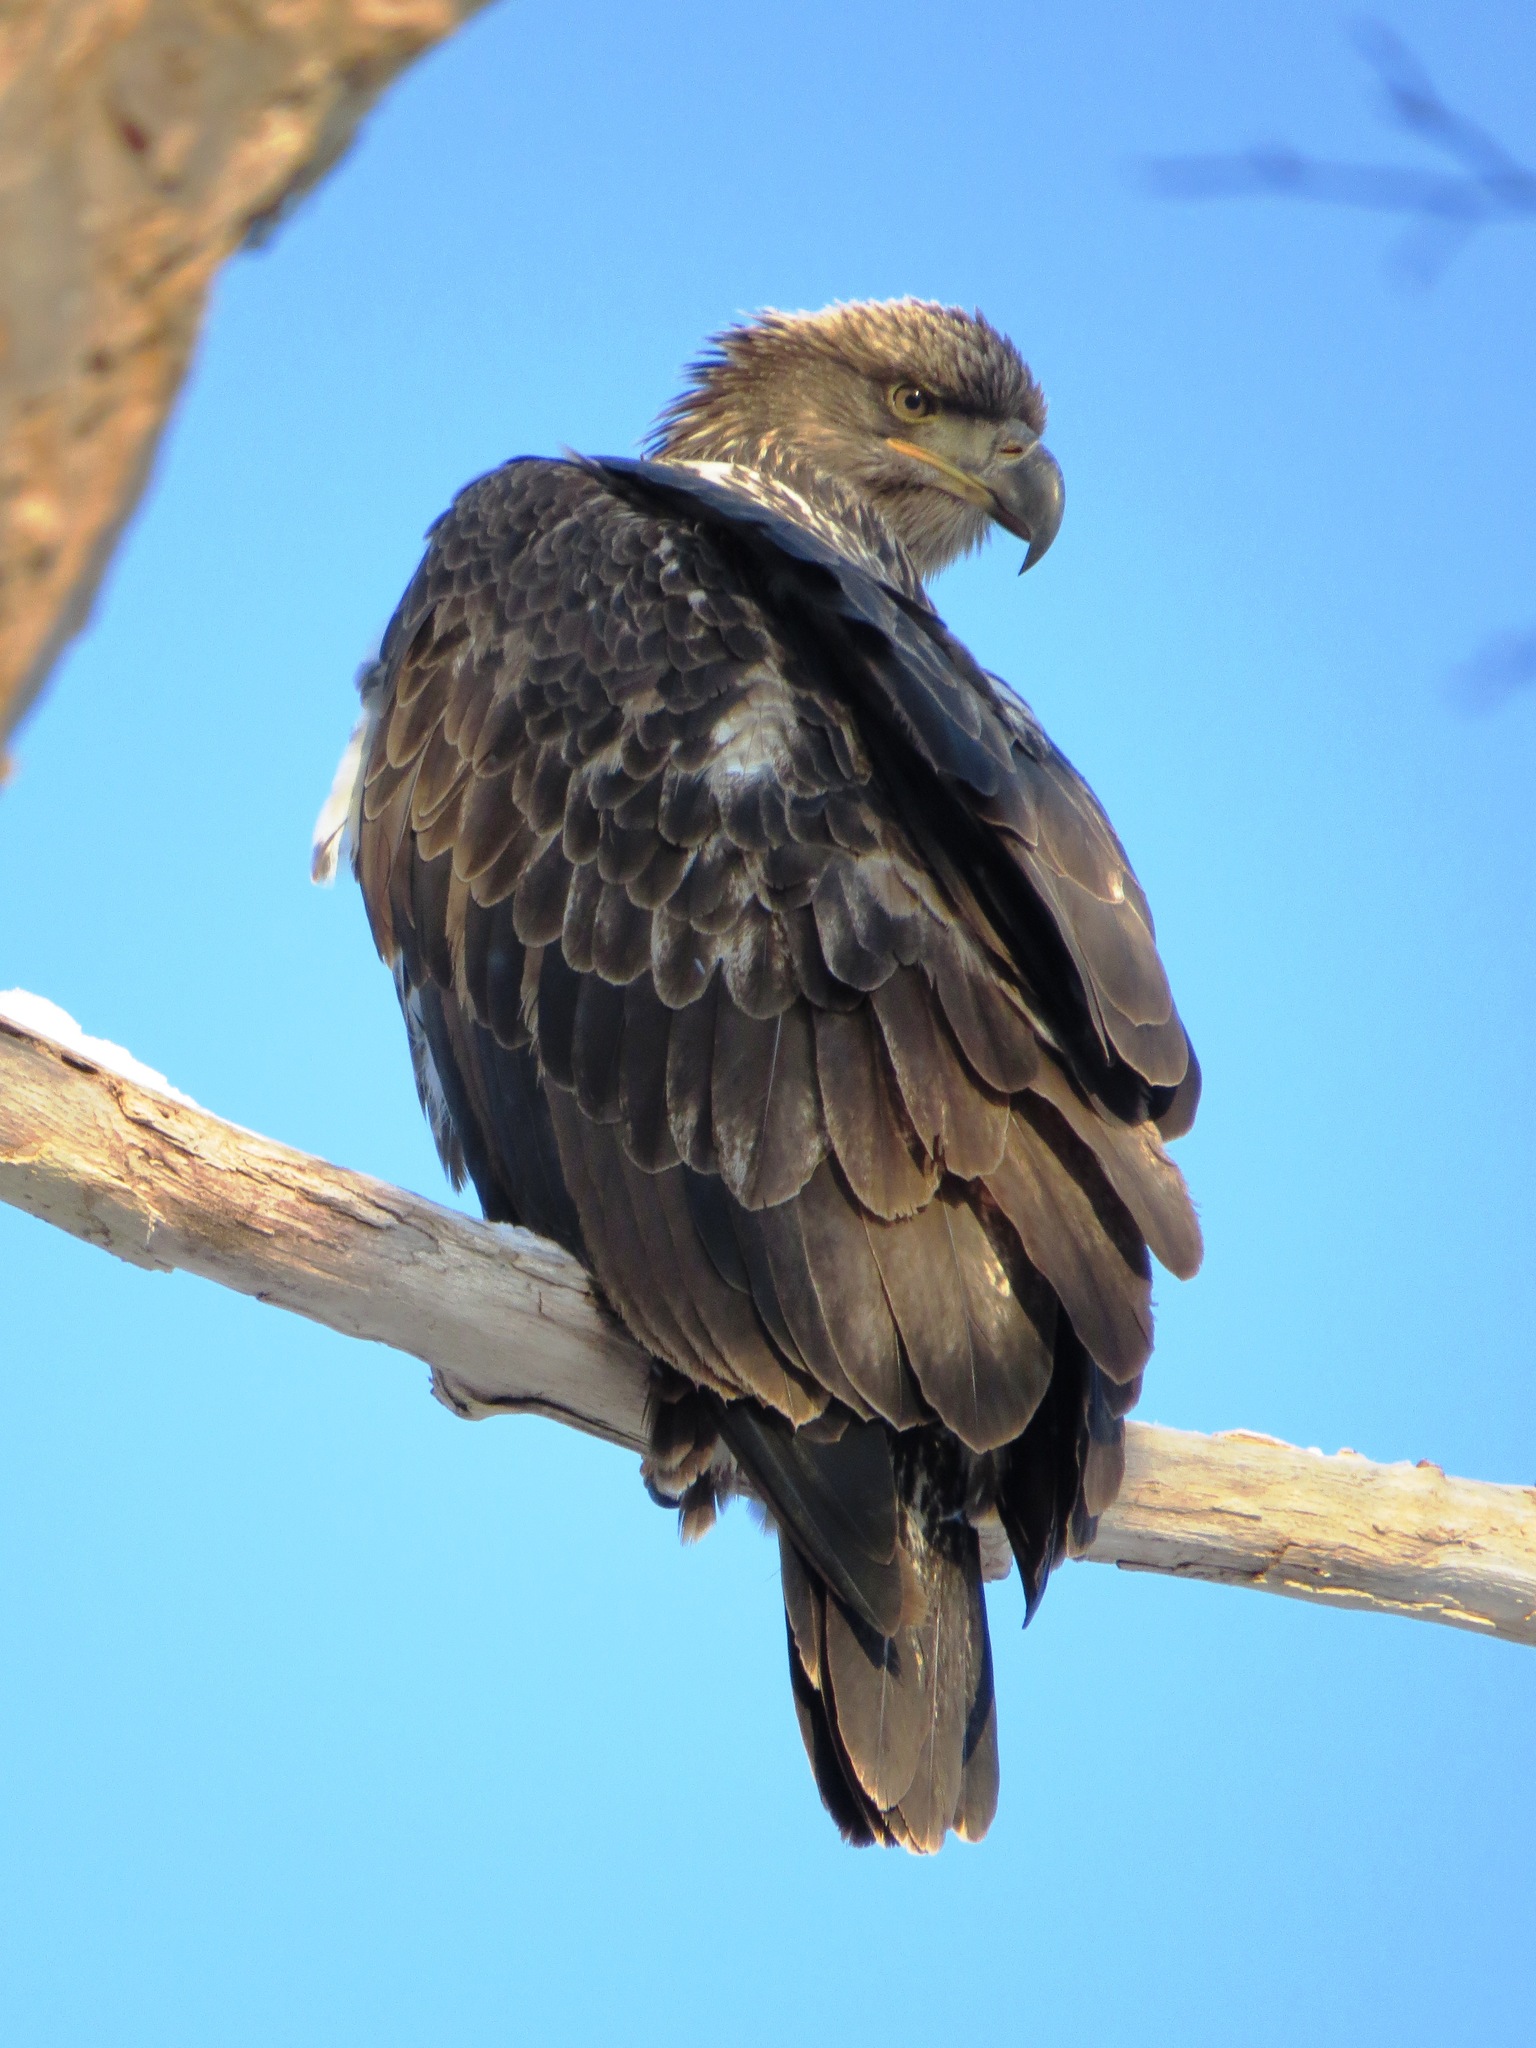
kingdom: Animalia
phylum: Chordata
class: Aves
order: Accipitriformes
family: Accipitridae
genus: Haliaeetus
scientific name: Haliaeetus leucocephalus
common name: Bald eagle
